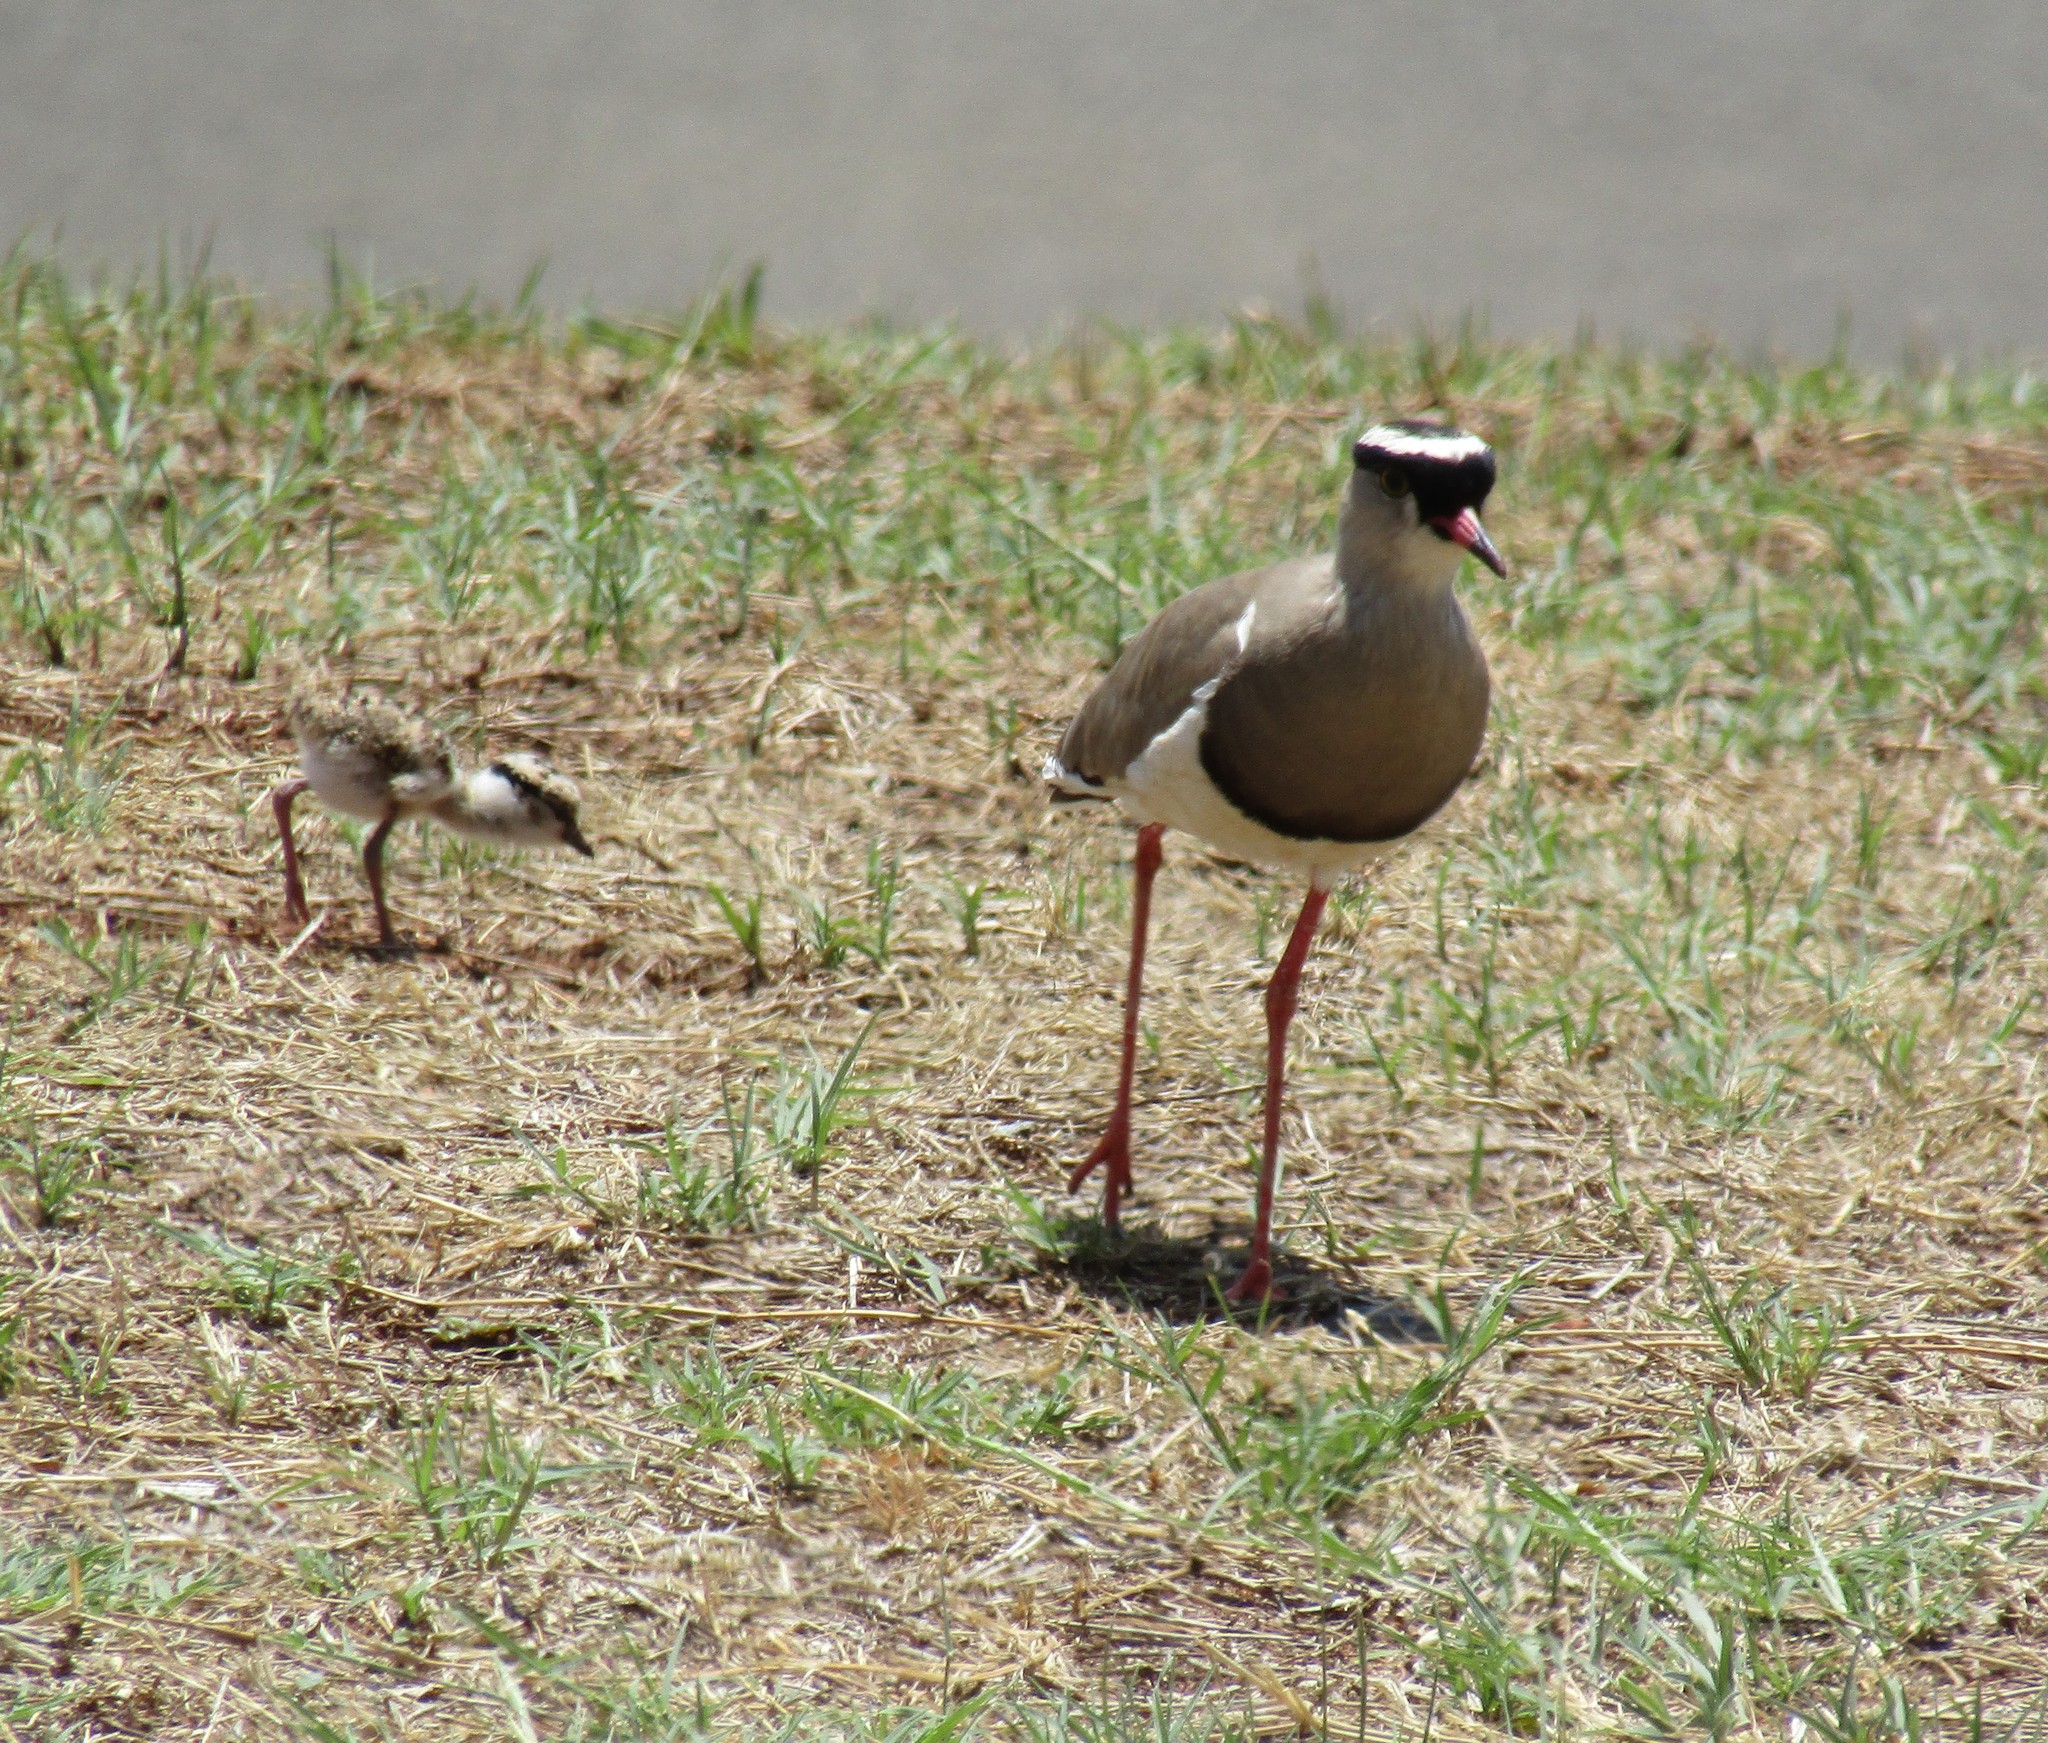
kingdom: Animalia
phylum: Chordata
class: Aves
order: Charadriiformes
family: Charadriidae
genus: Vanellus
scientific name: Vanellus coronatus
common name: Crowned lapwing
